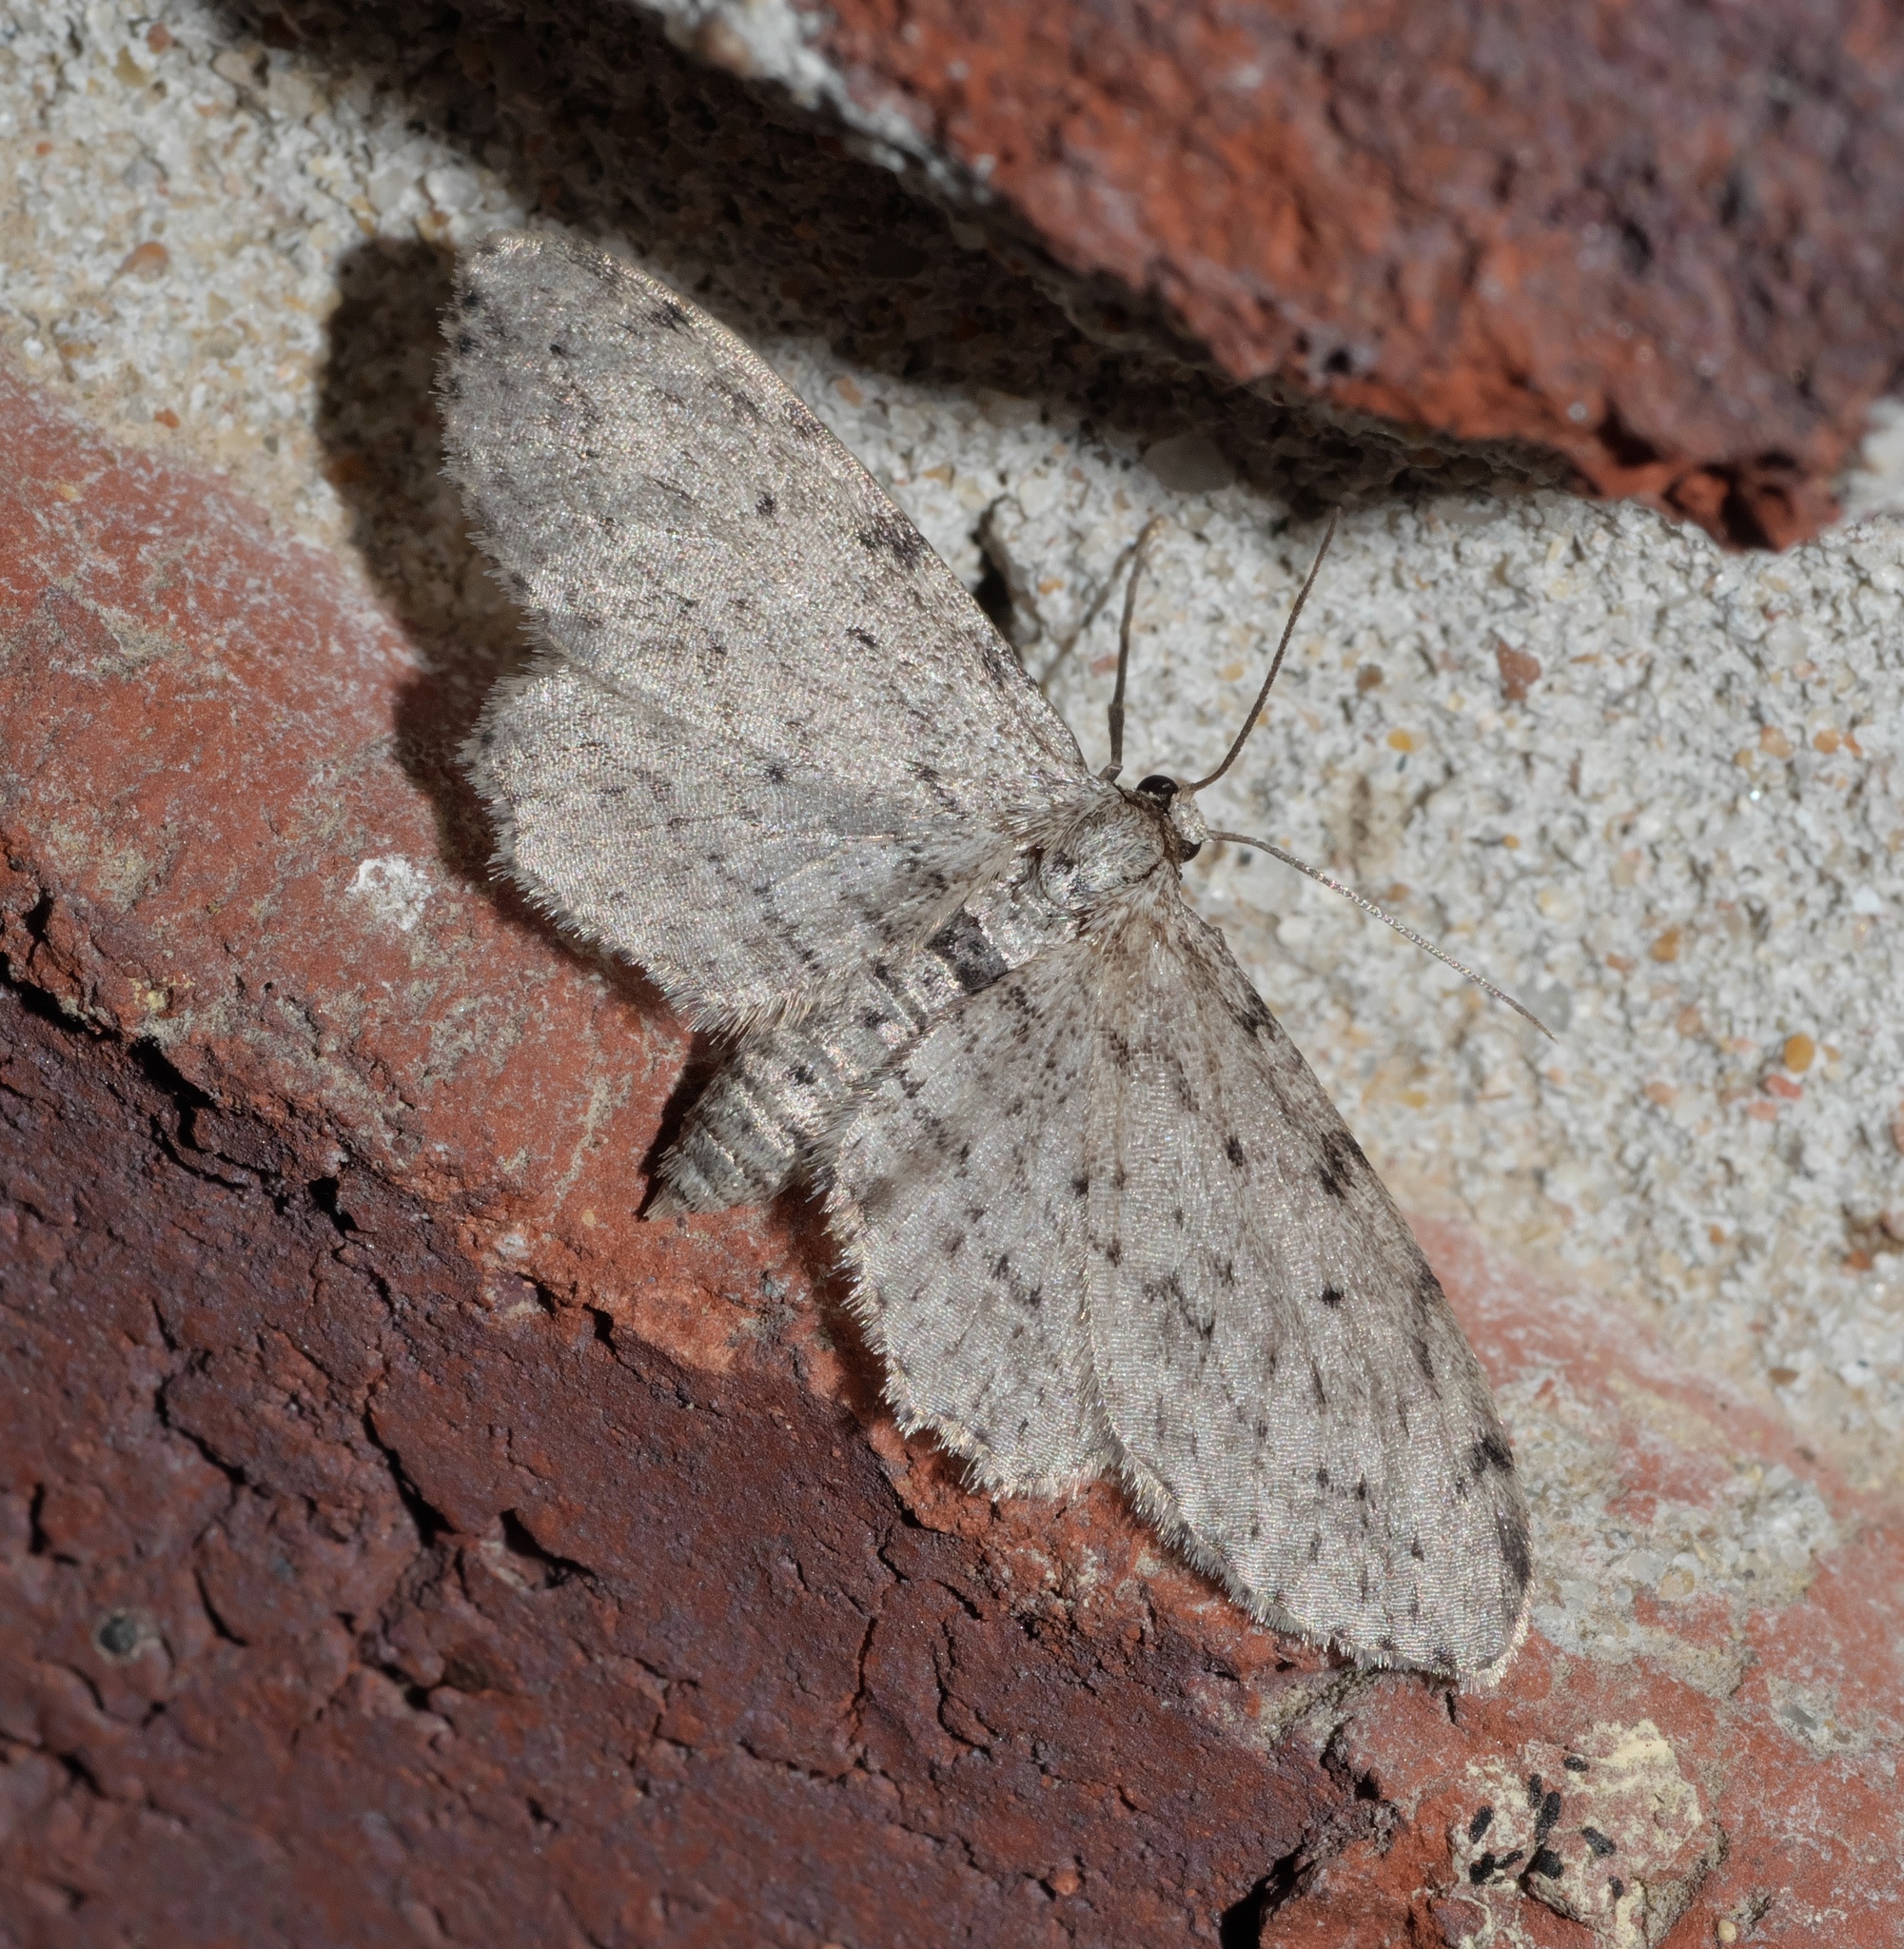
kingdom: Animalia
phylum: Arthropoda
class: Insecta
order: Lepidoptera
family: Geometridae
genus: Pimaphera
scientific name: Pimaphera sparsaria
